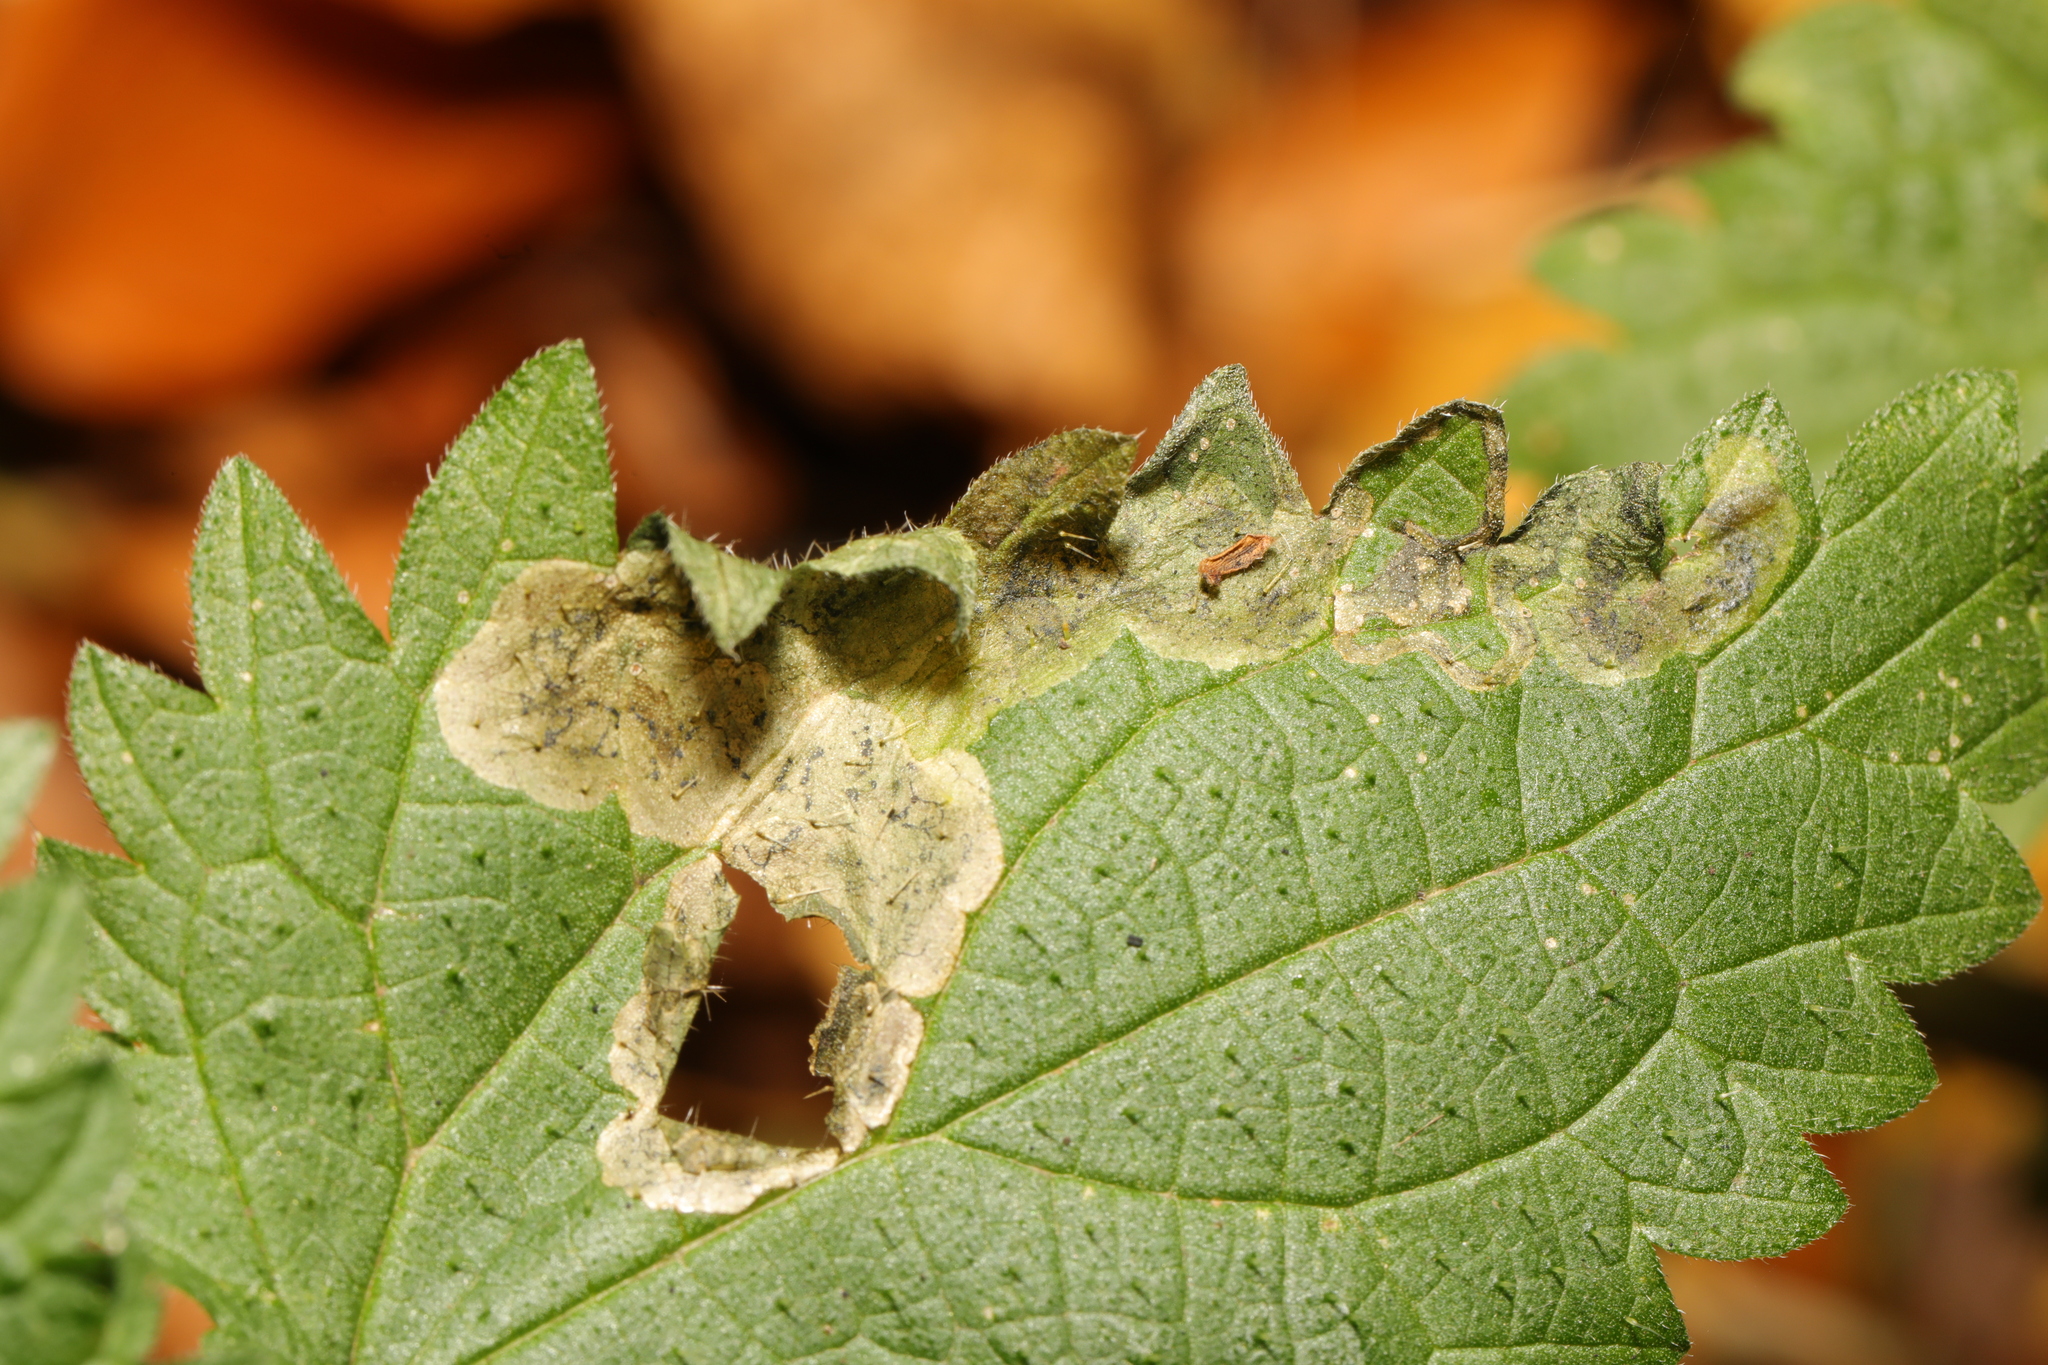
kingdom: Animalia
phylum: Arthropoda
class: Insecta
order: Diptera
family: Agromyzidae
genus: Agromyza
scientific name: Agromyza anthracina
